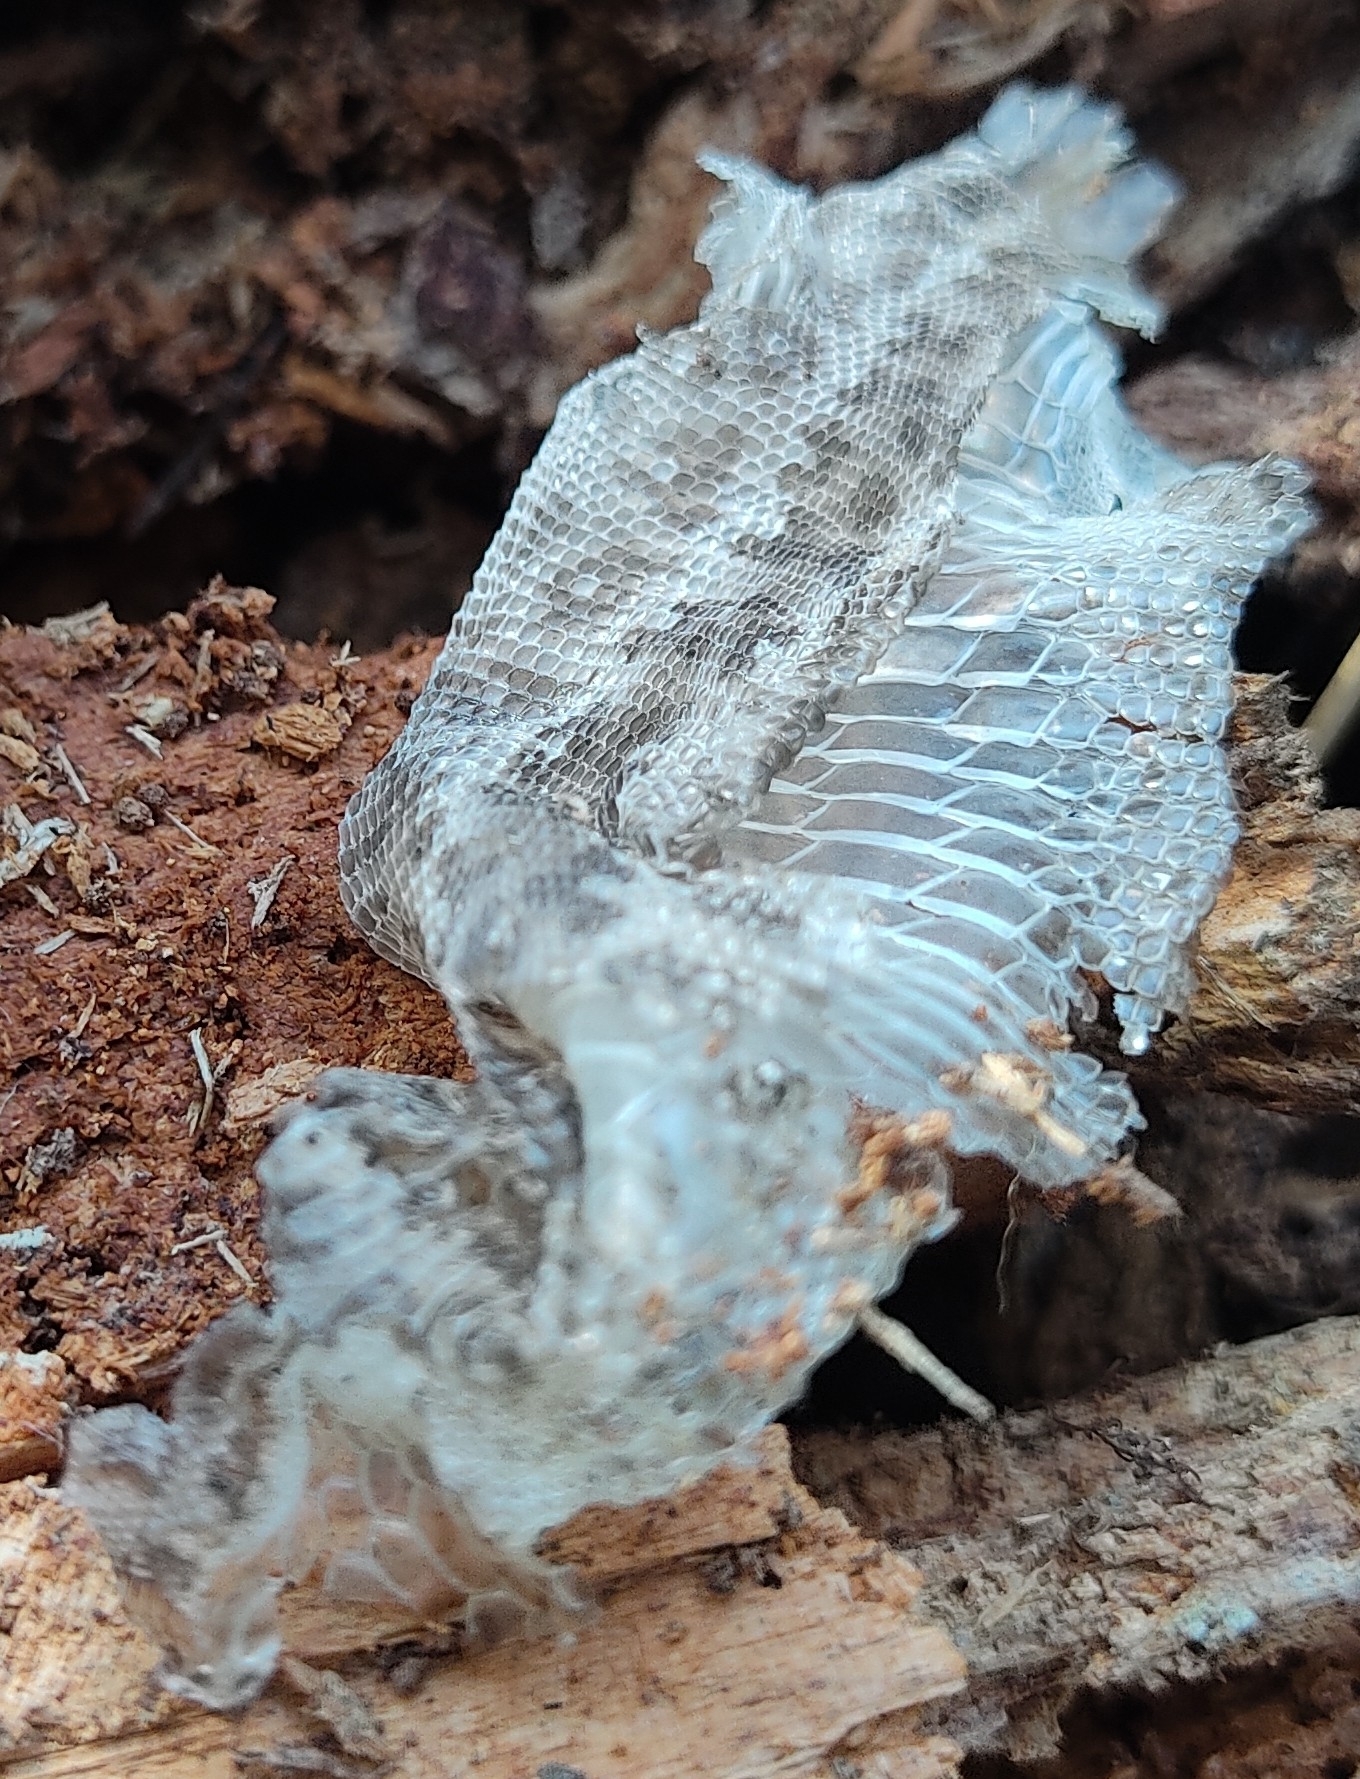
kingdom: Animalia
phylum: Chordata
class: Squamata
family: Lacertidae
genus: Lacerta
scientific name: Lacerta agilis
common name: Sand lizard
